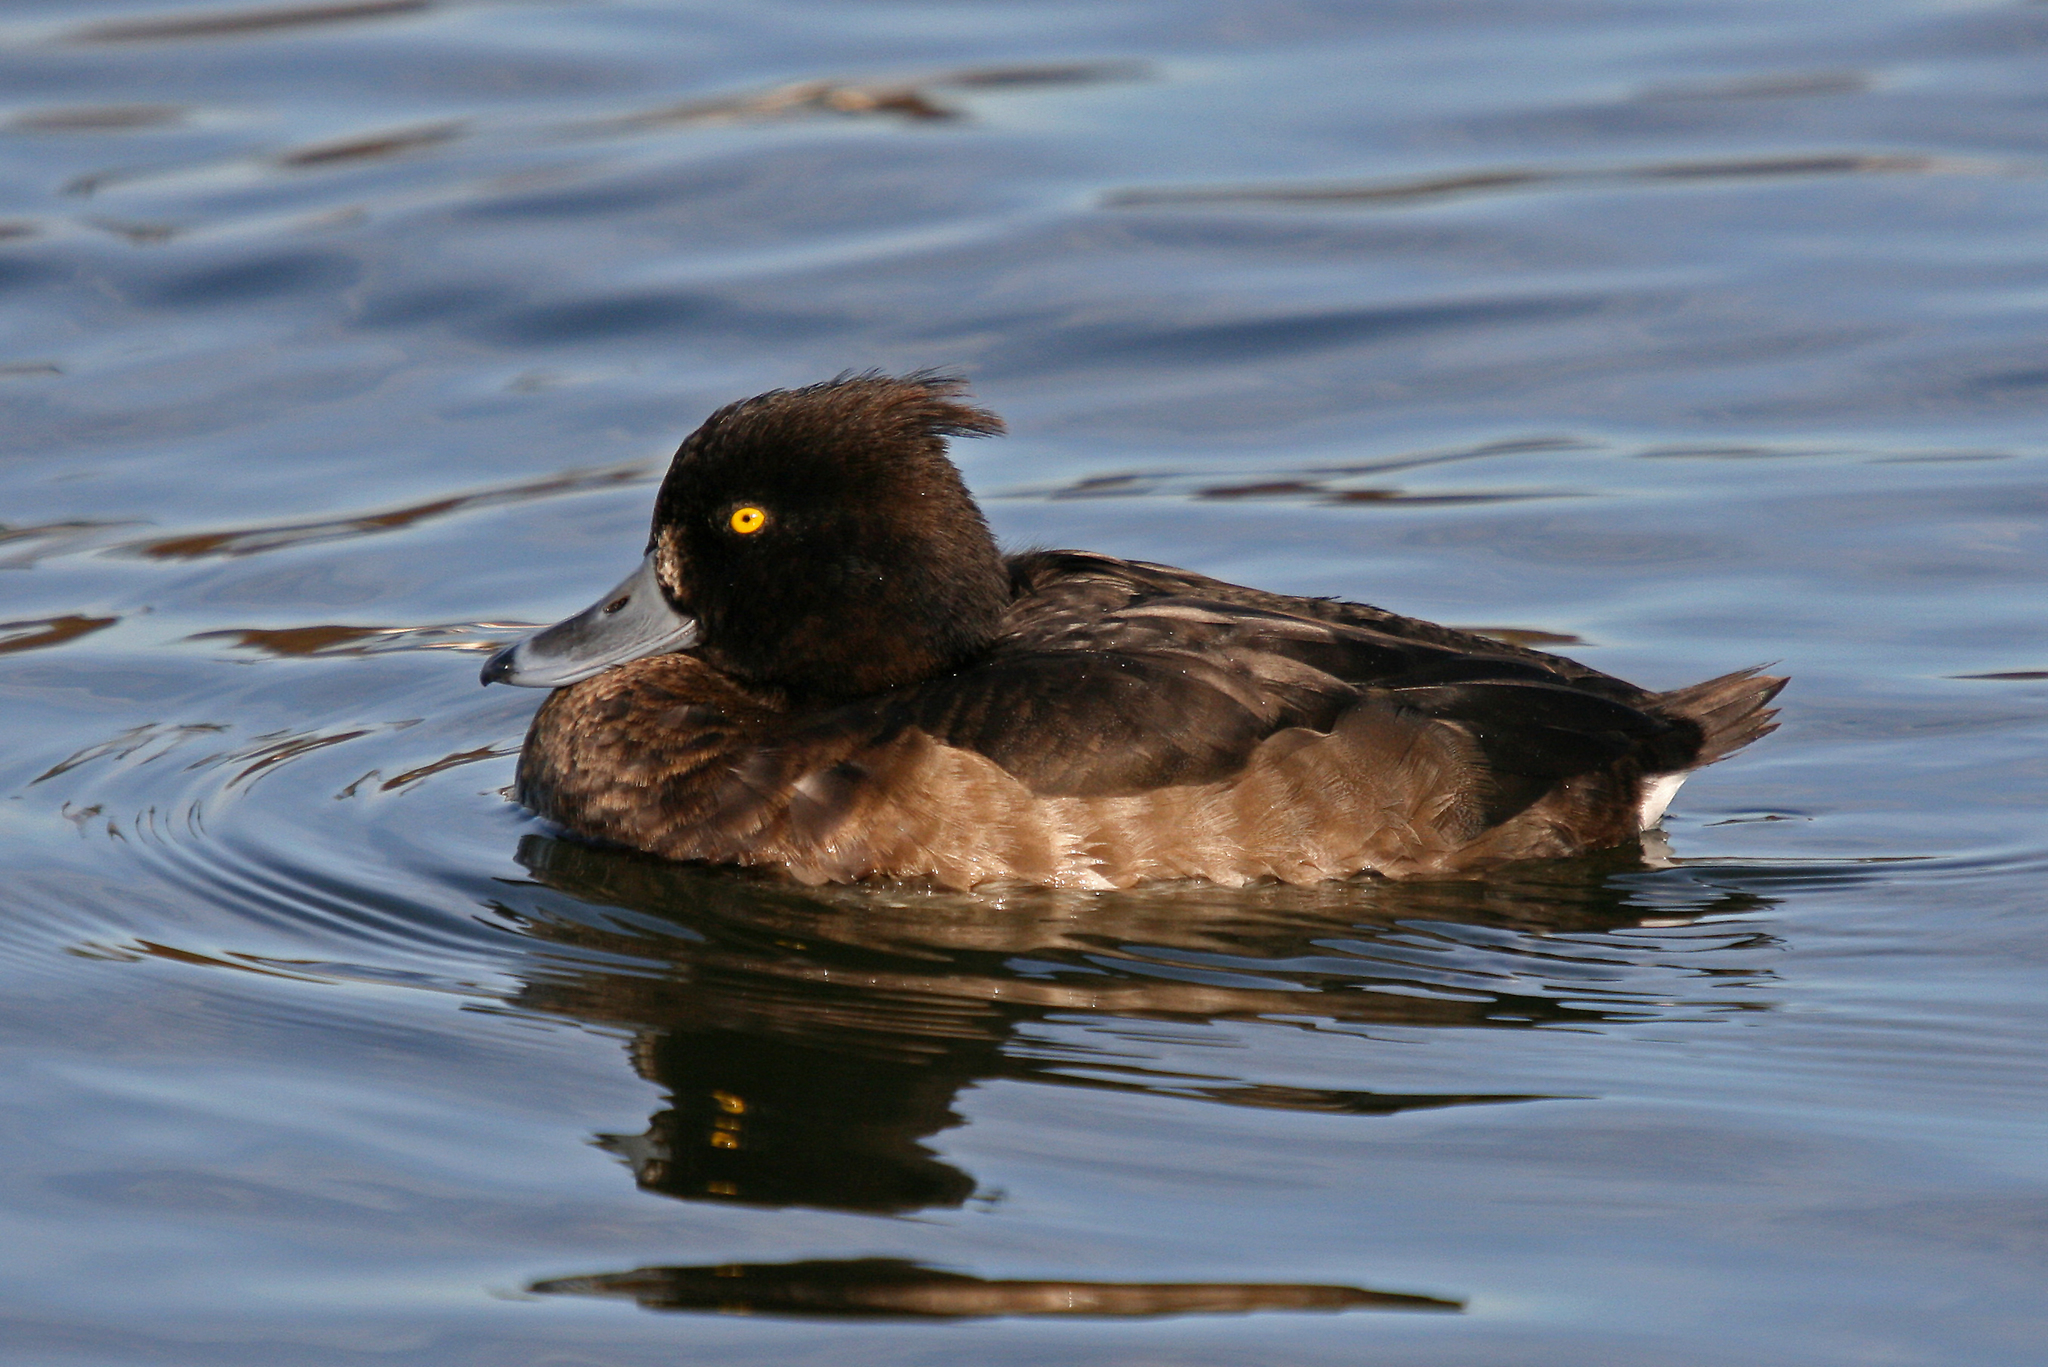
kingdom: Animalia
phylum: Chordata
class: Aves
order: Anseriformes
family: Anatidae
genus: Aythya
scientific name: Aythya fuligula
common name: Tufted duck
